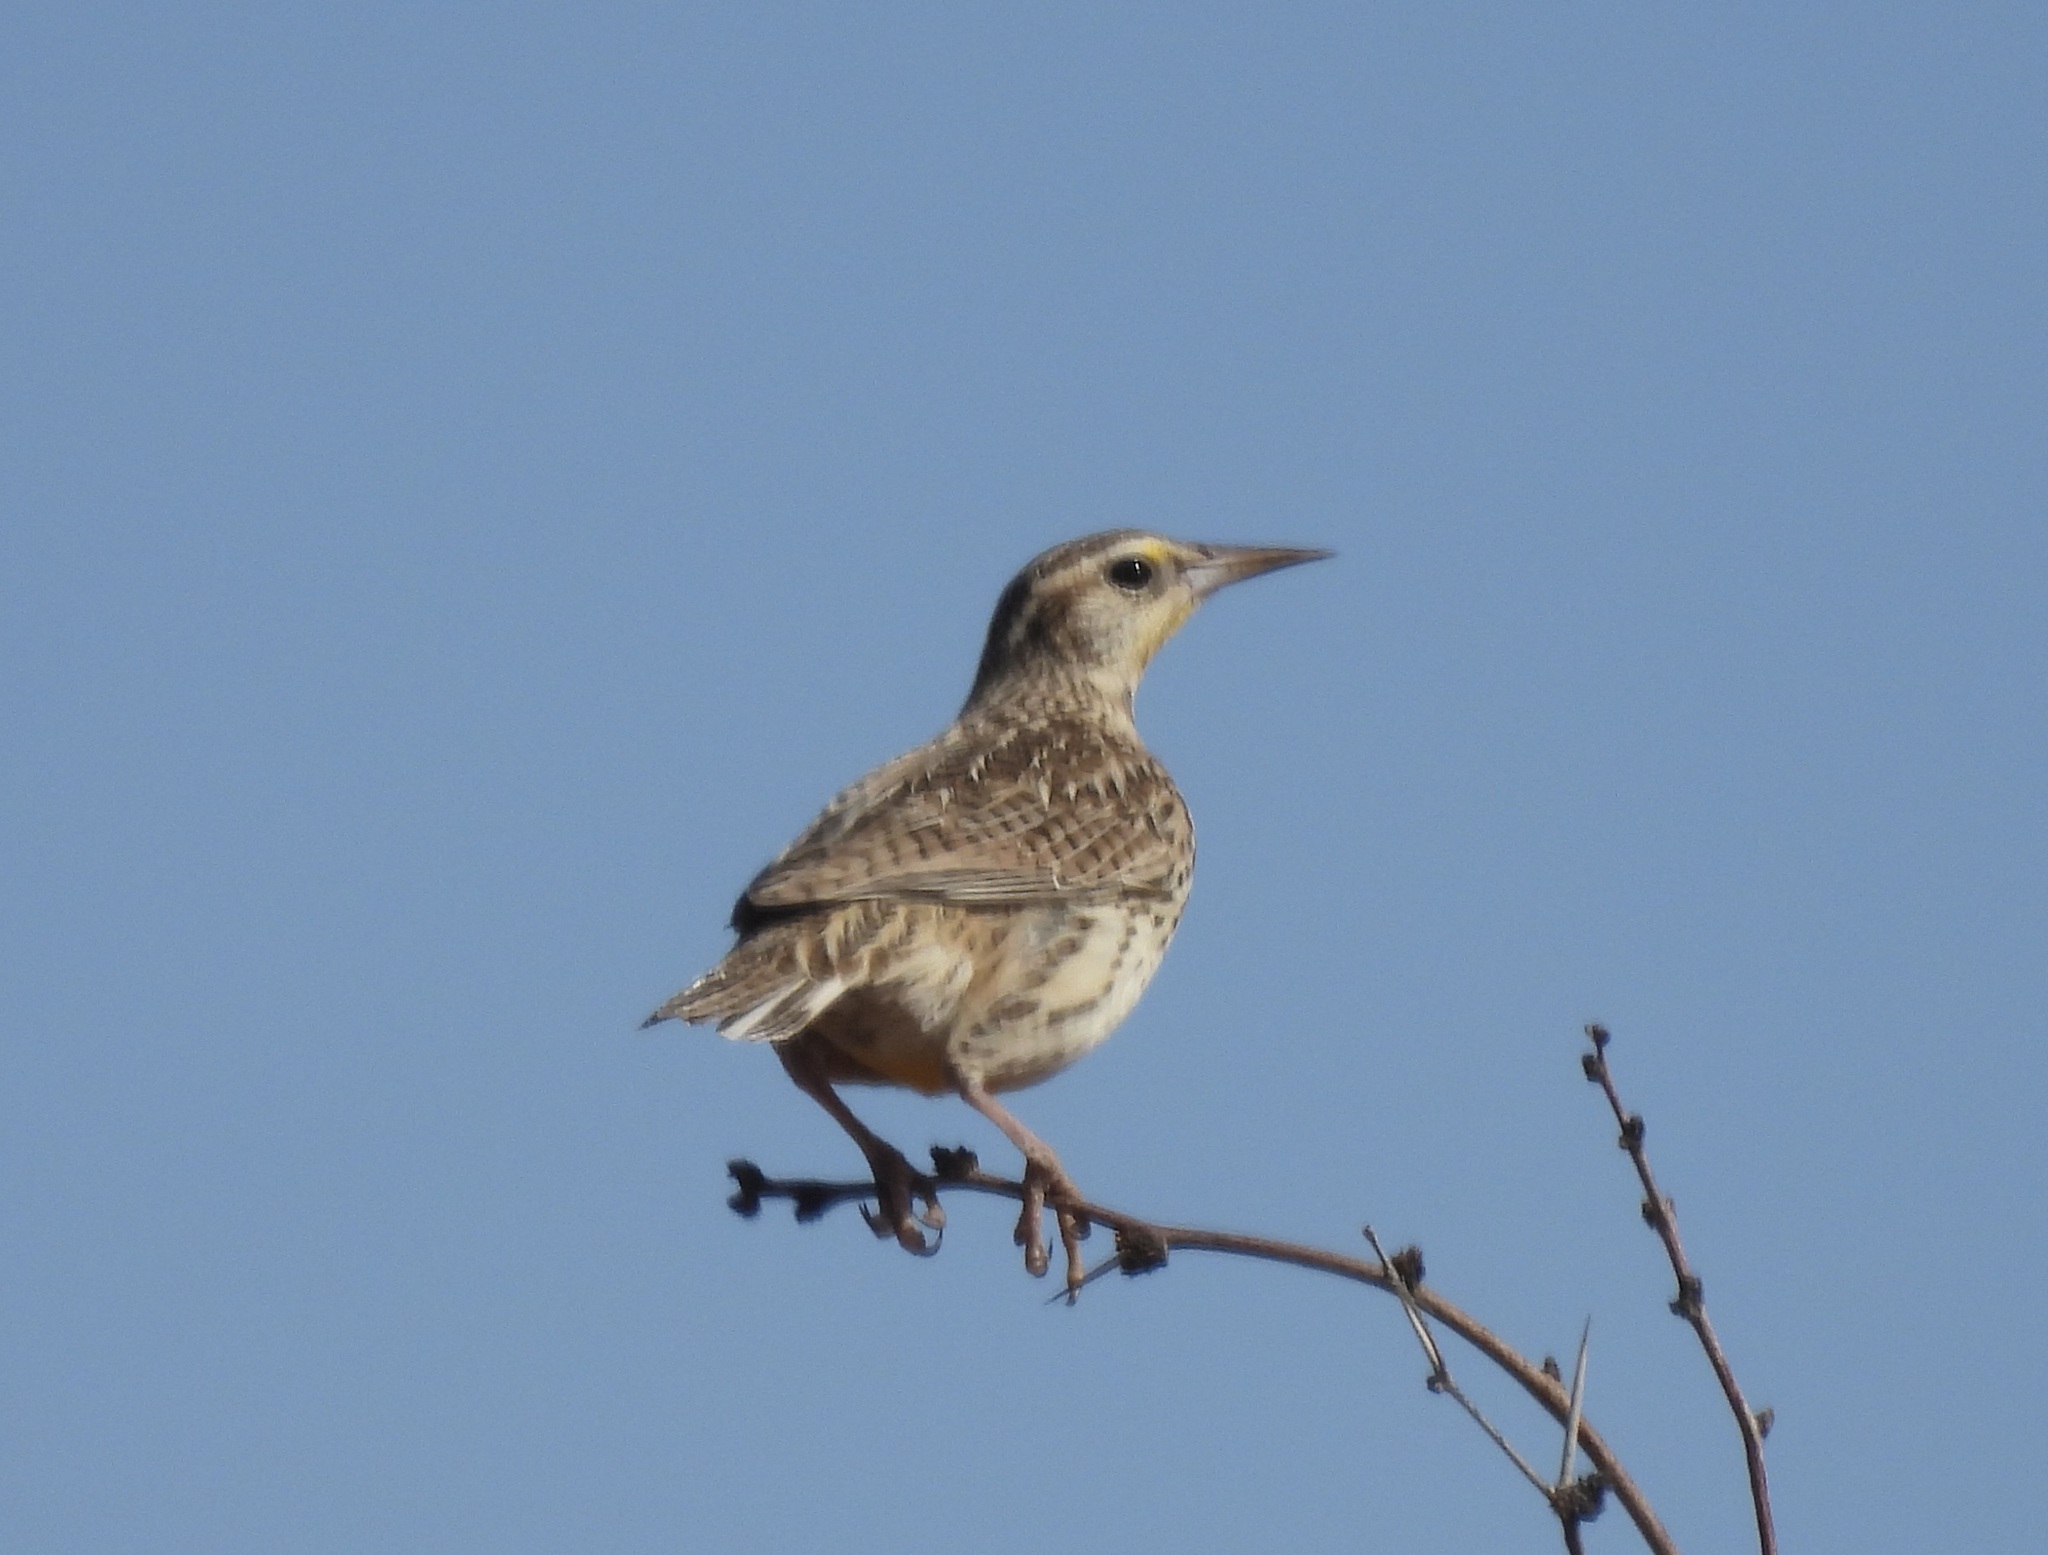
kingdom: Animalia
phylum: Chordata
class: Aves
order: Passeriformes
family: Icteridae
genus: Sturnella
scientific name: Sturnella neglecta
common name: Western meadowlark
